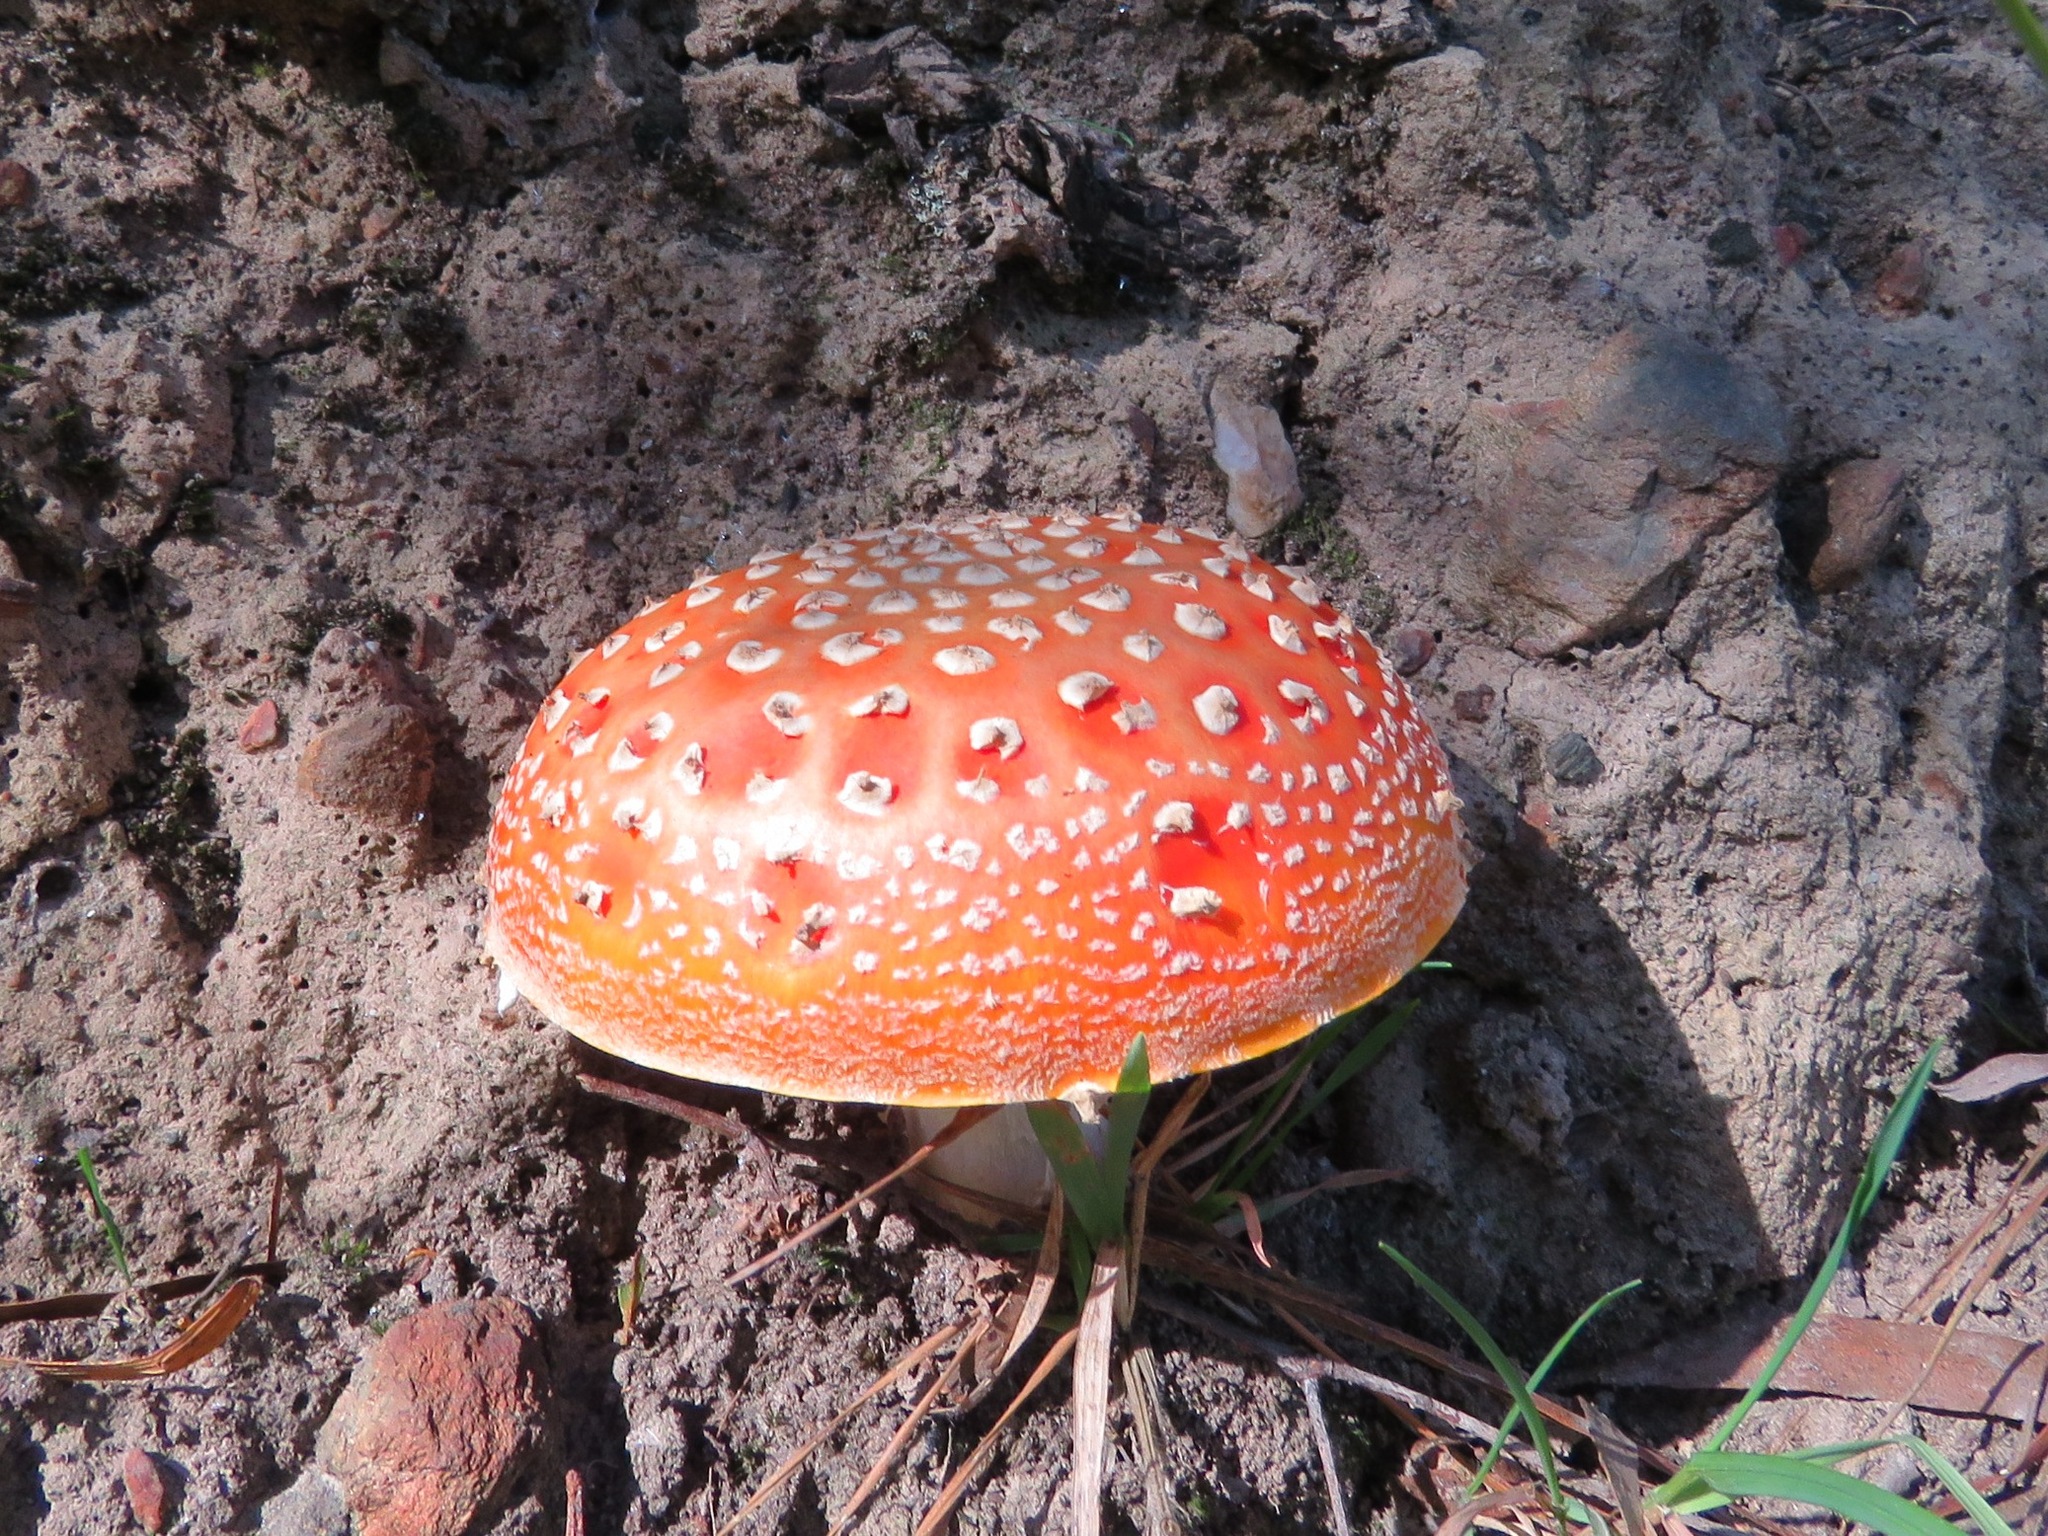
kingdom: Fungi
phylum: Basidiomycota
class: Agaricomycetes
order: Agaricales
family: Amanitaceae
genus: Amanita
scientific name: Amanita muscaria
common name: Fly agaric
